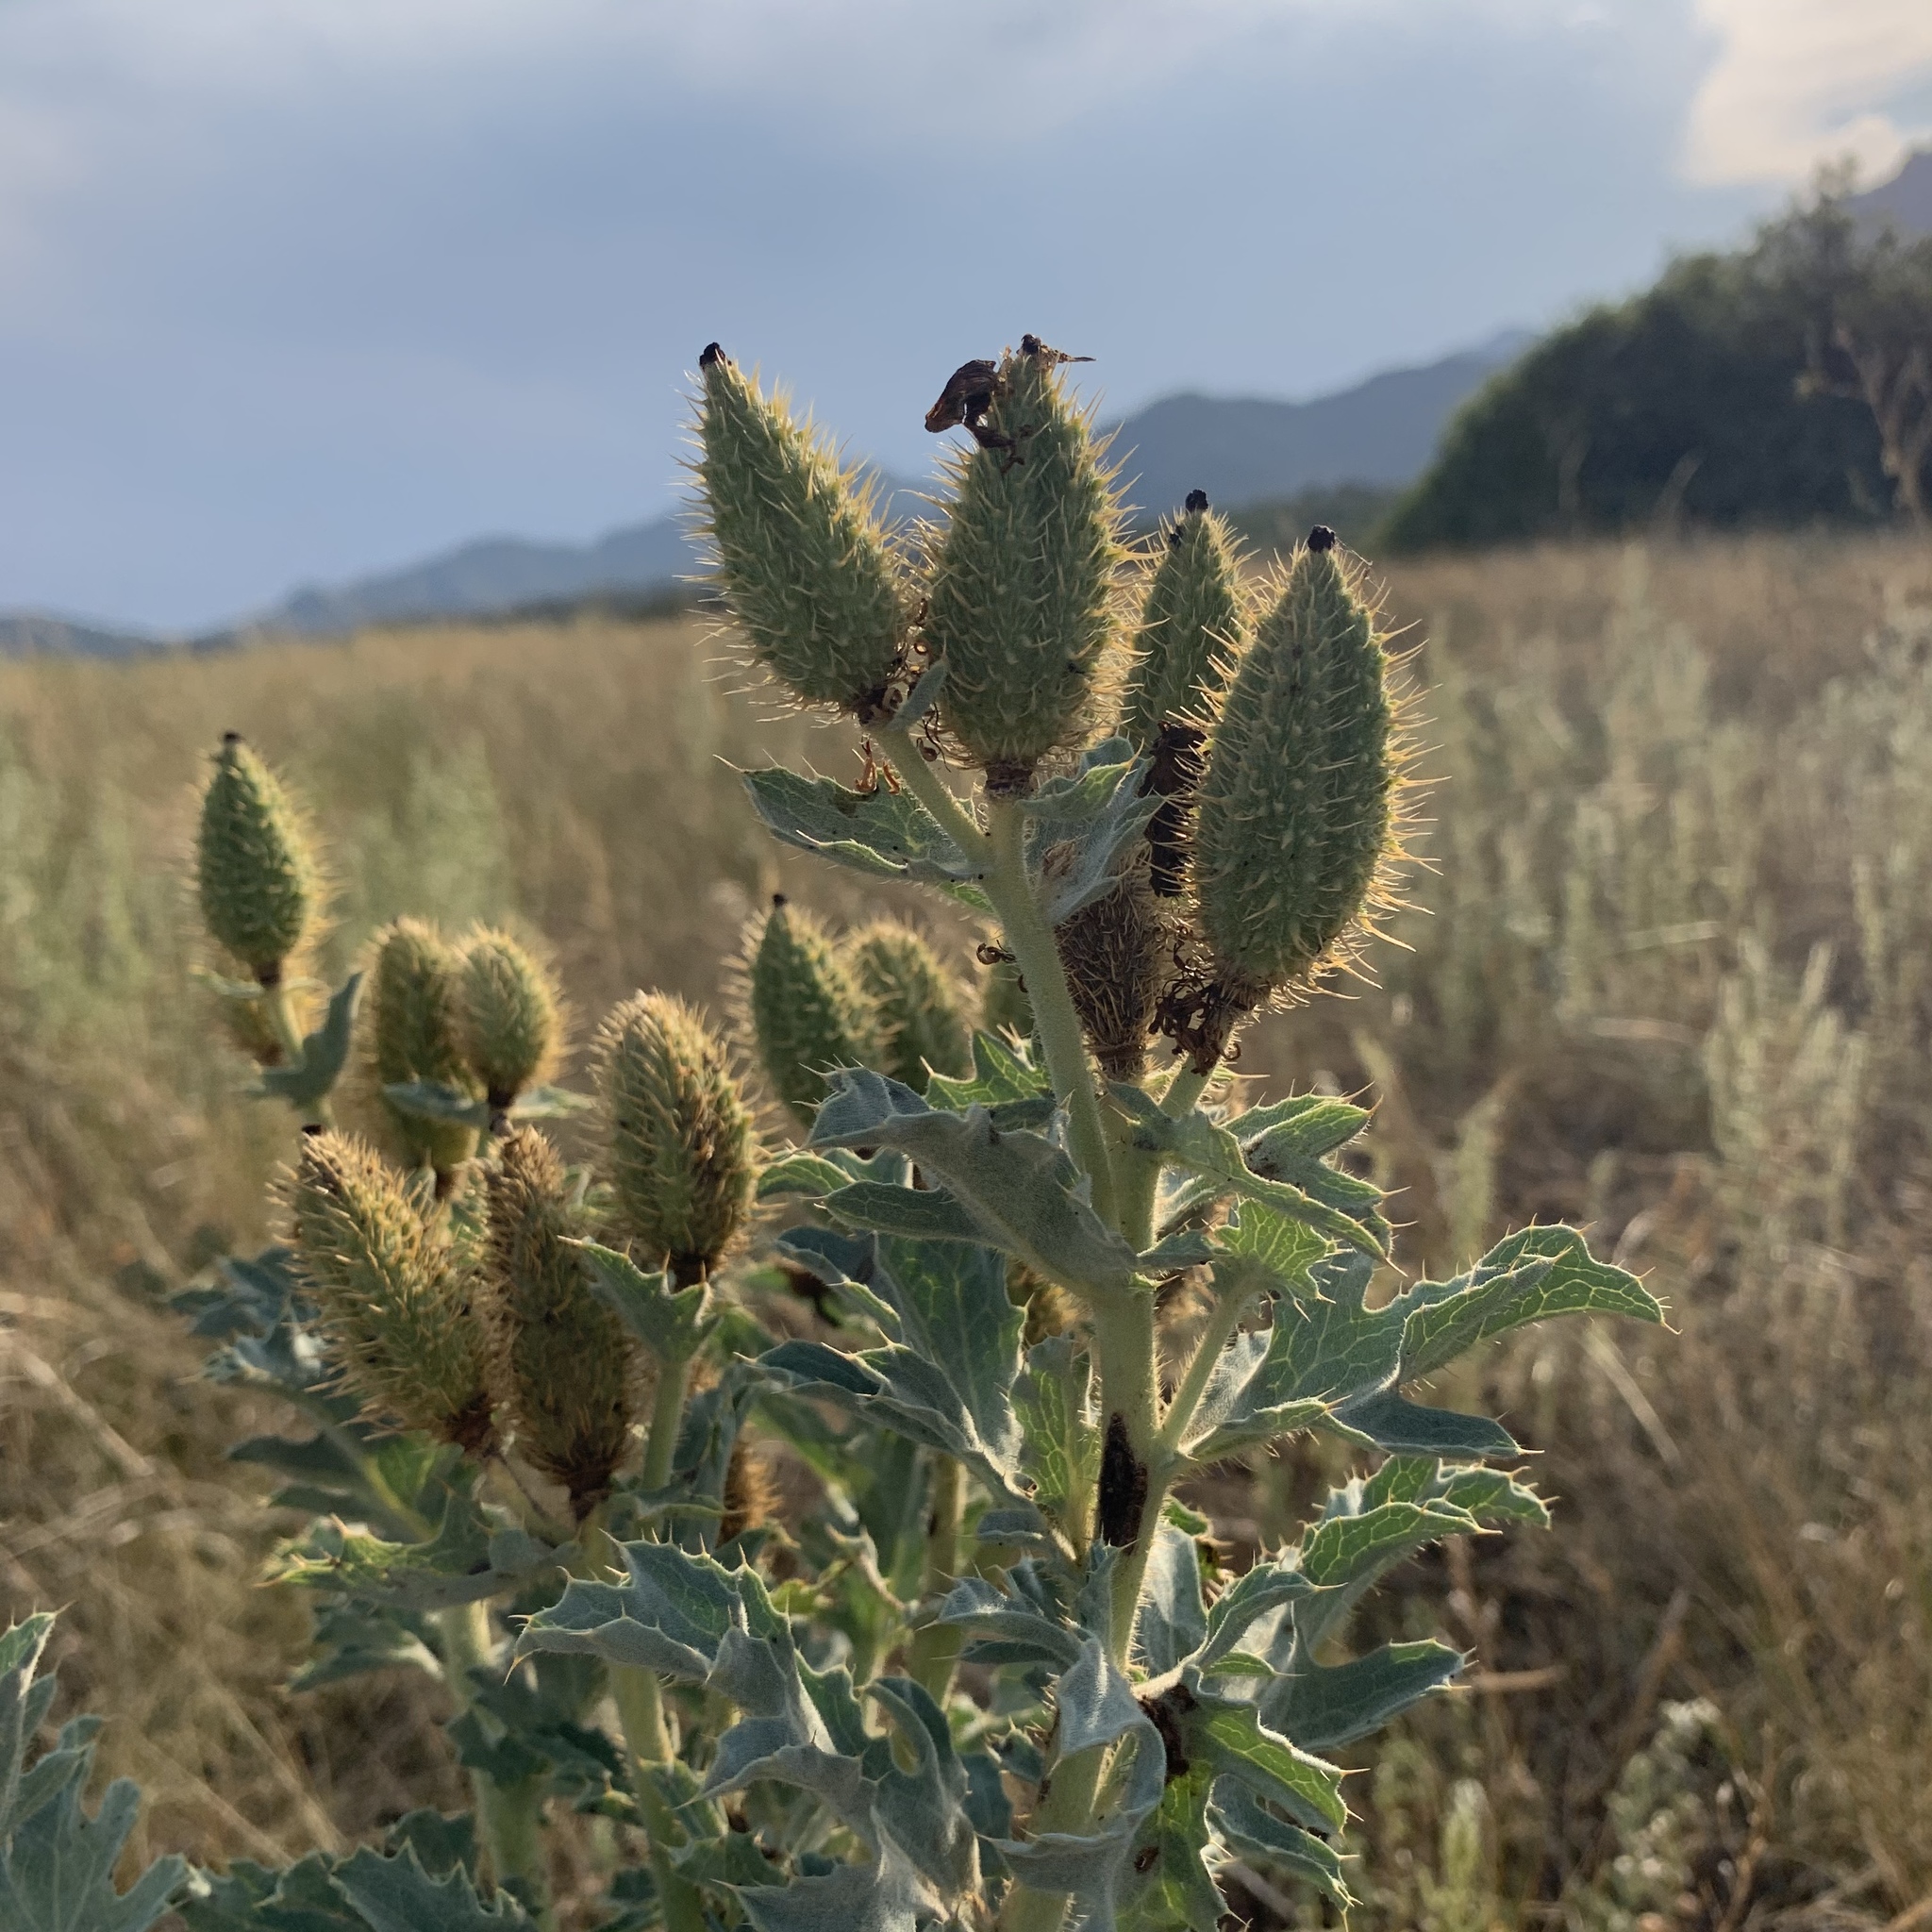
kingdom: Plantae
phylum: Tracheophyta
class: Magnoliopsida
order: Ranunculales
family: Papaveraceae
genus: Argemone
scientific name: Argemone polyanthemos
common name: Plains prickly-poppy
